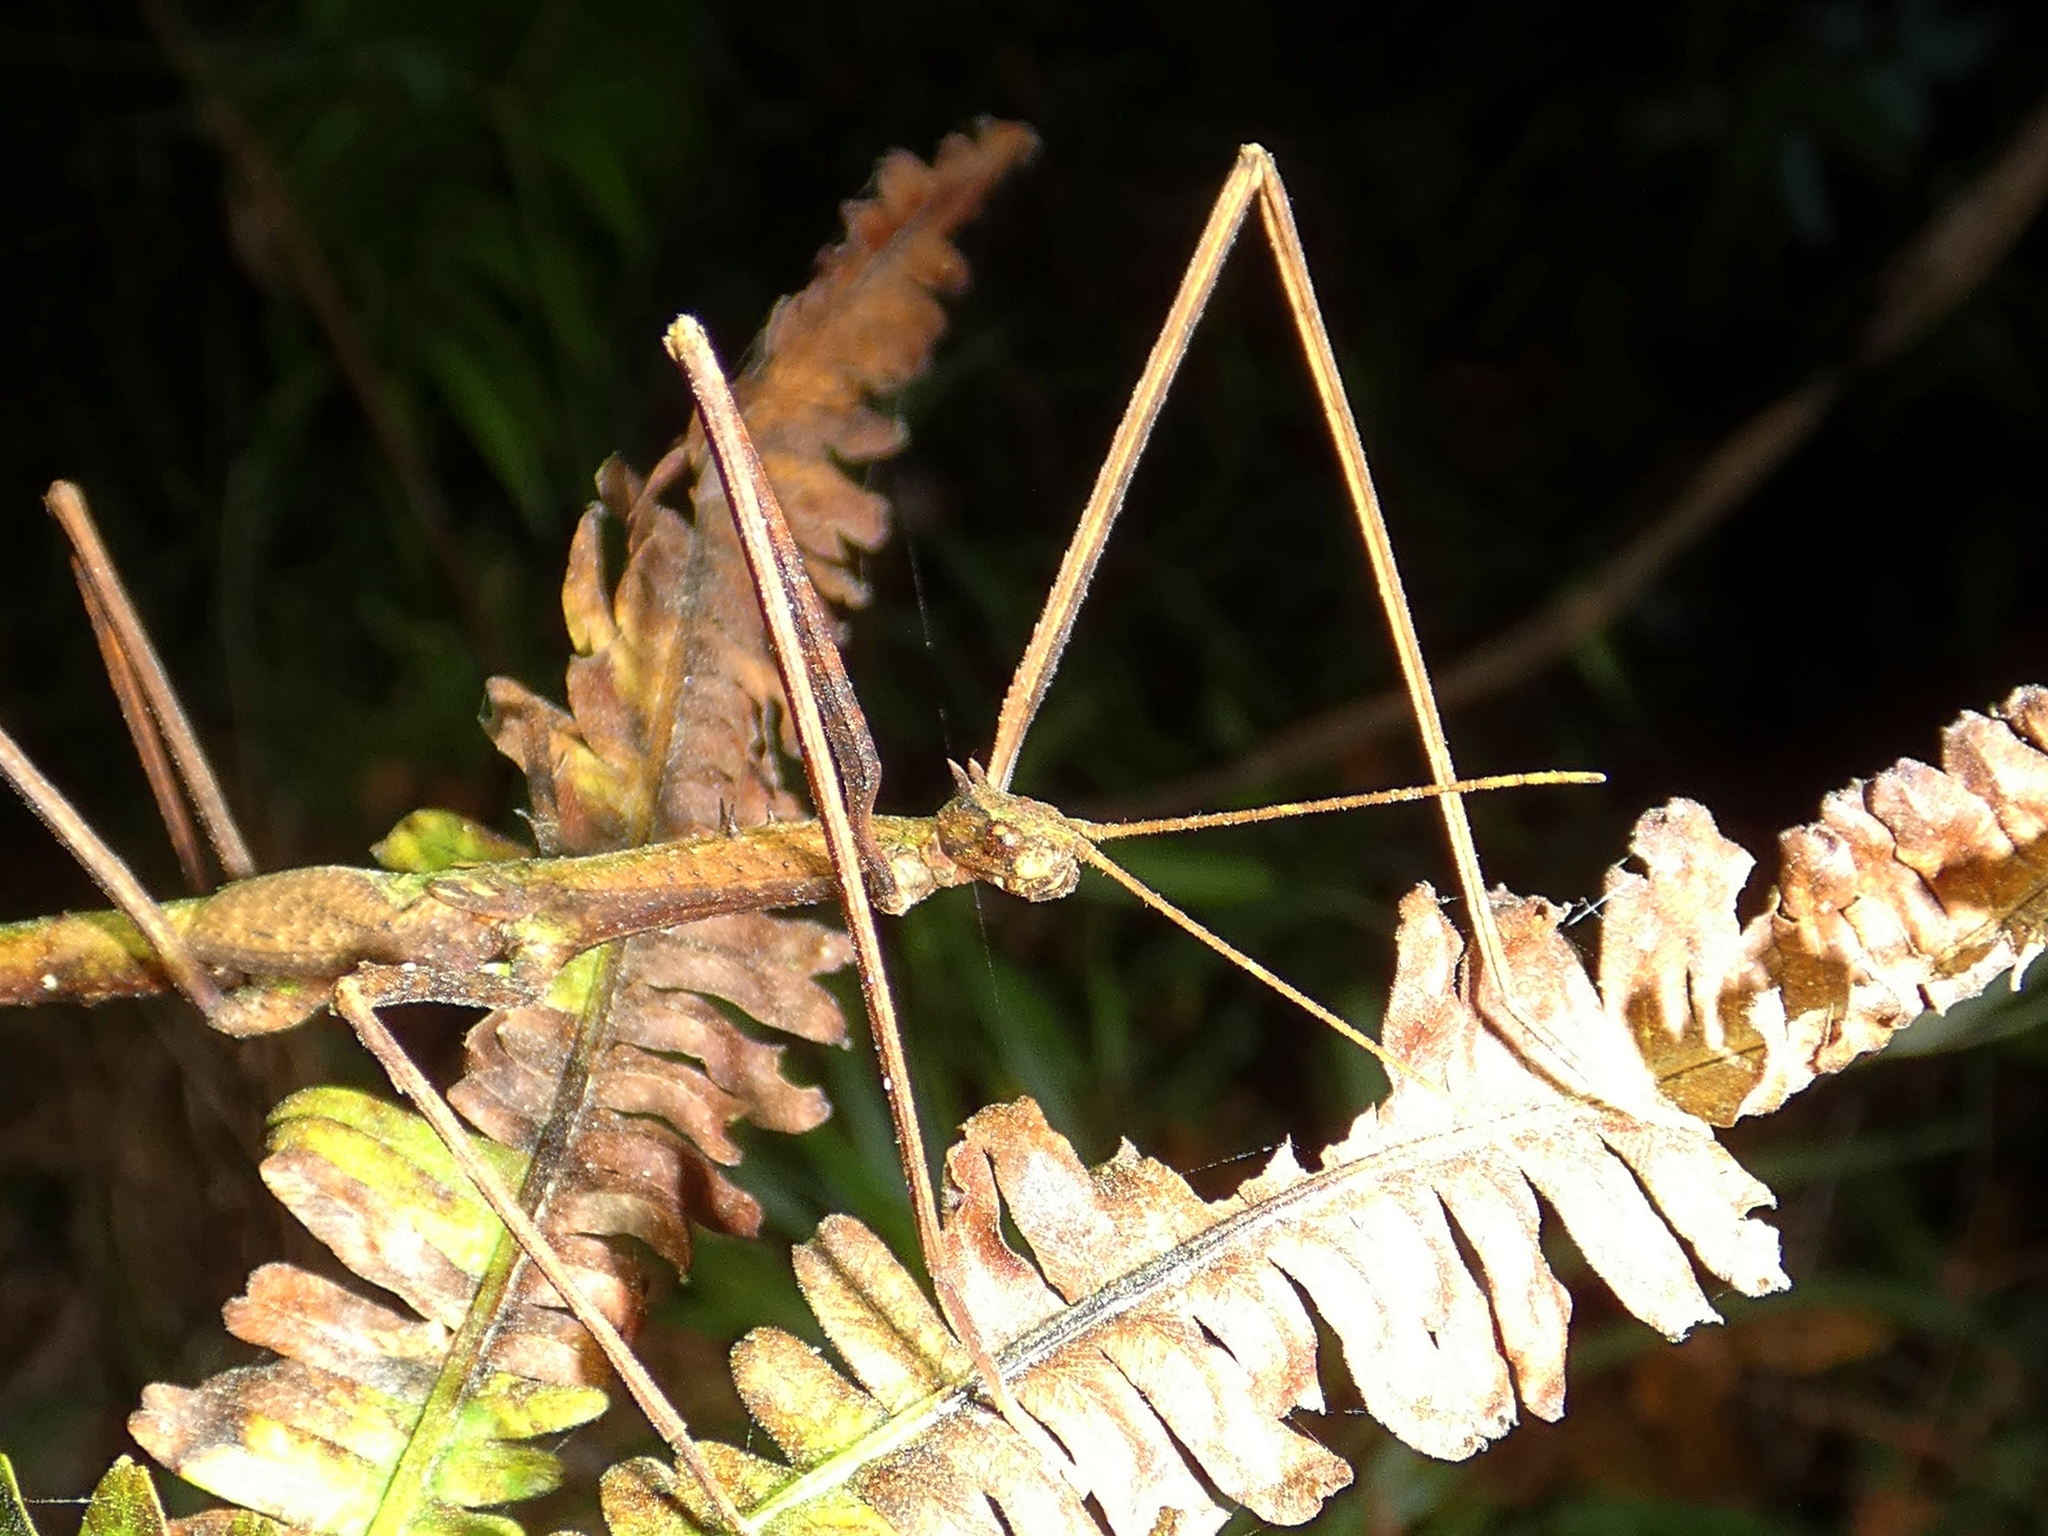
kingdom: Animalia
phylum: Arthropoda
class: Insecta
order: Phasmida
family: Phasmatidae
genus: Onchestus
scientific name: Onchestus rentzi
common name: Rentz's stick-insect
